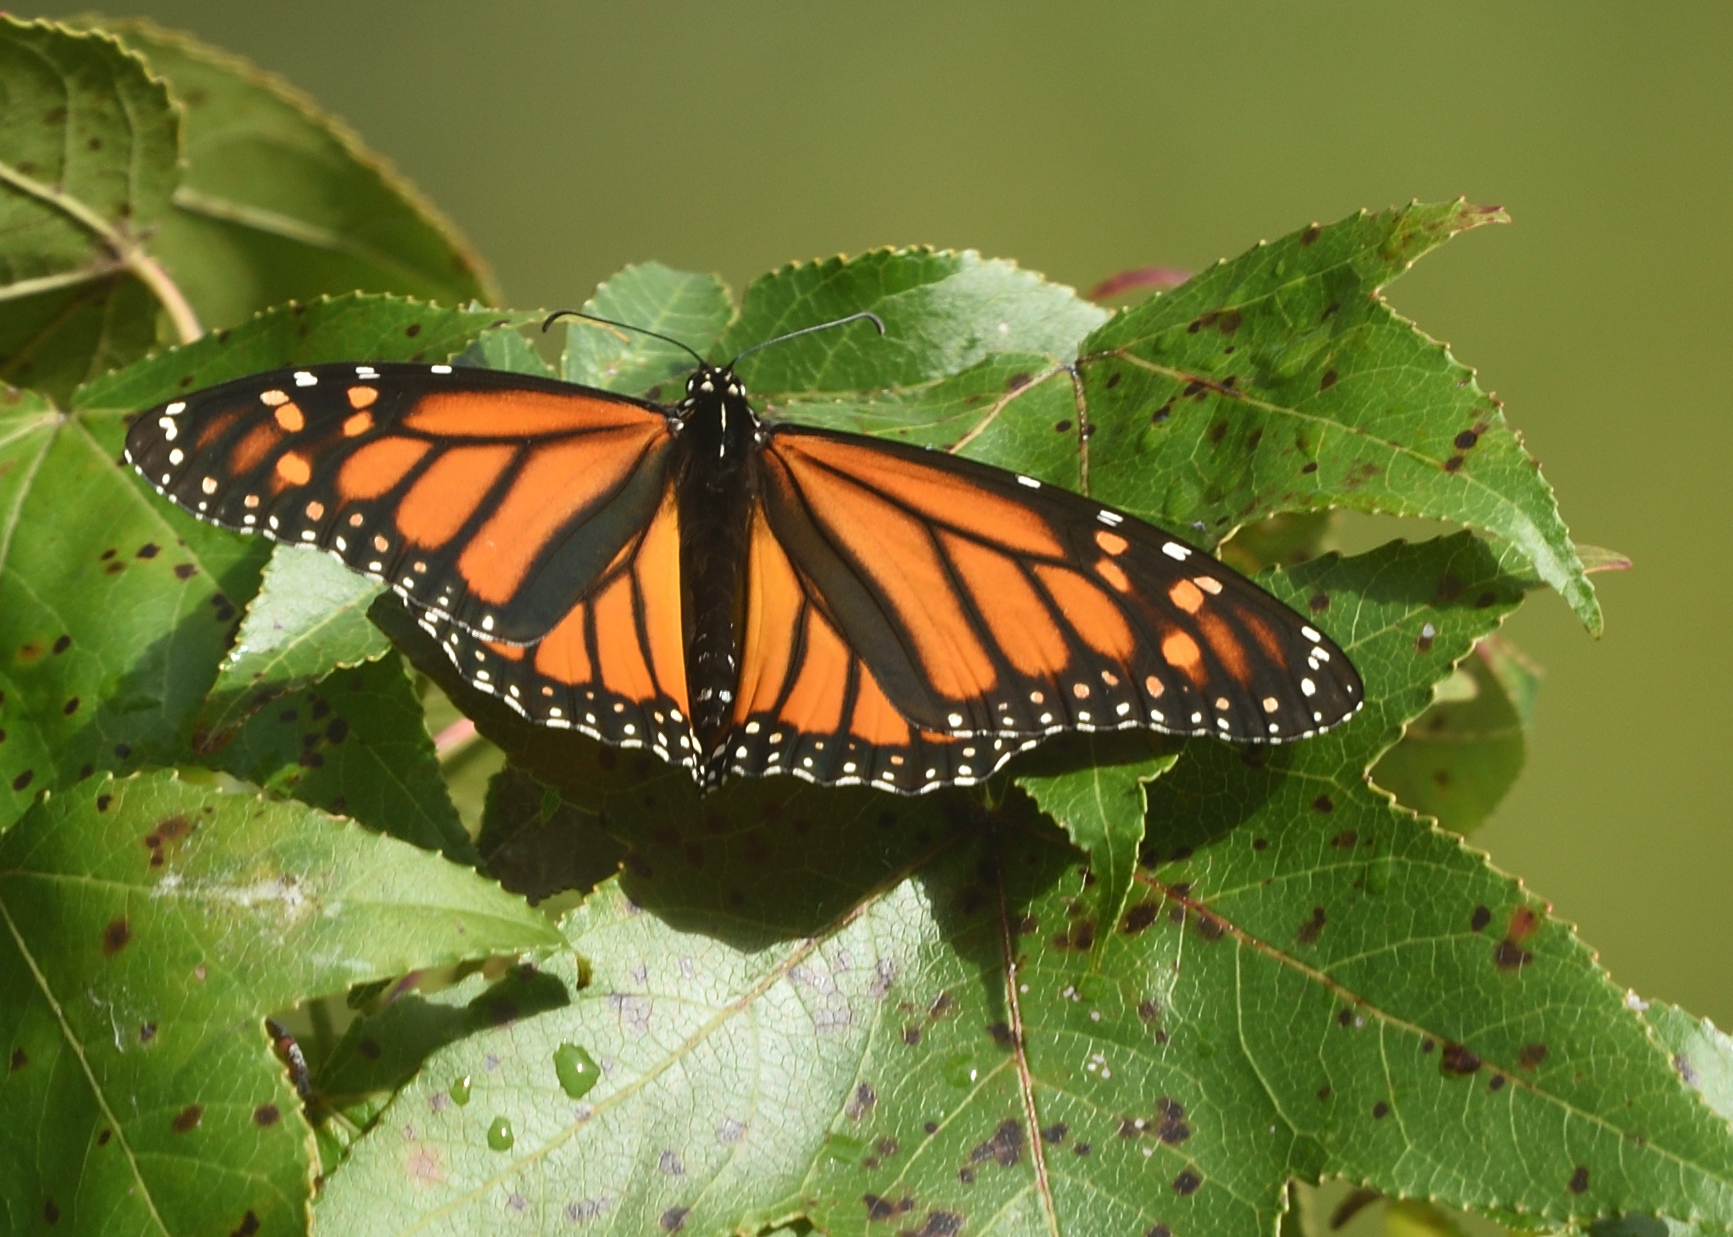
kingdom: Animalia
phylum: Arthropoda
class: Insecta
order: Lepidoptera
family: Nymphalidae
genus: Danaus
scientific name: Danaus plexippus
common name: Monarch
